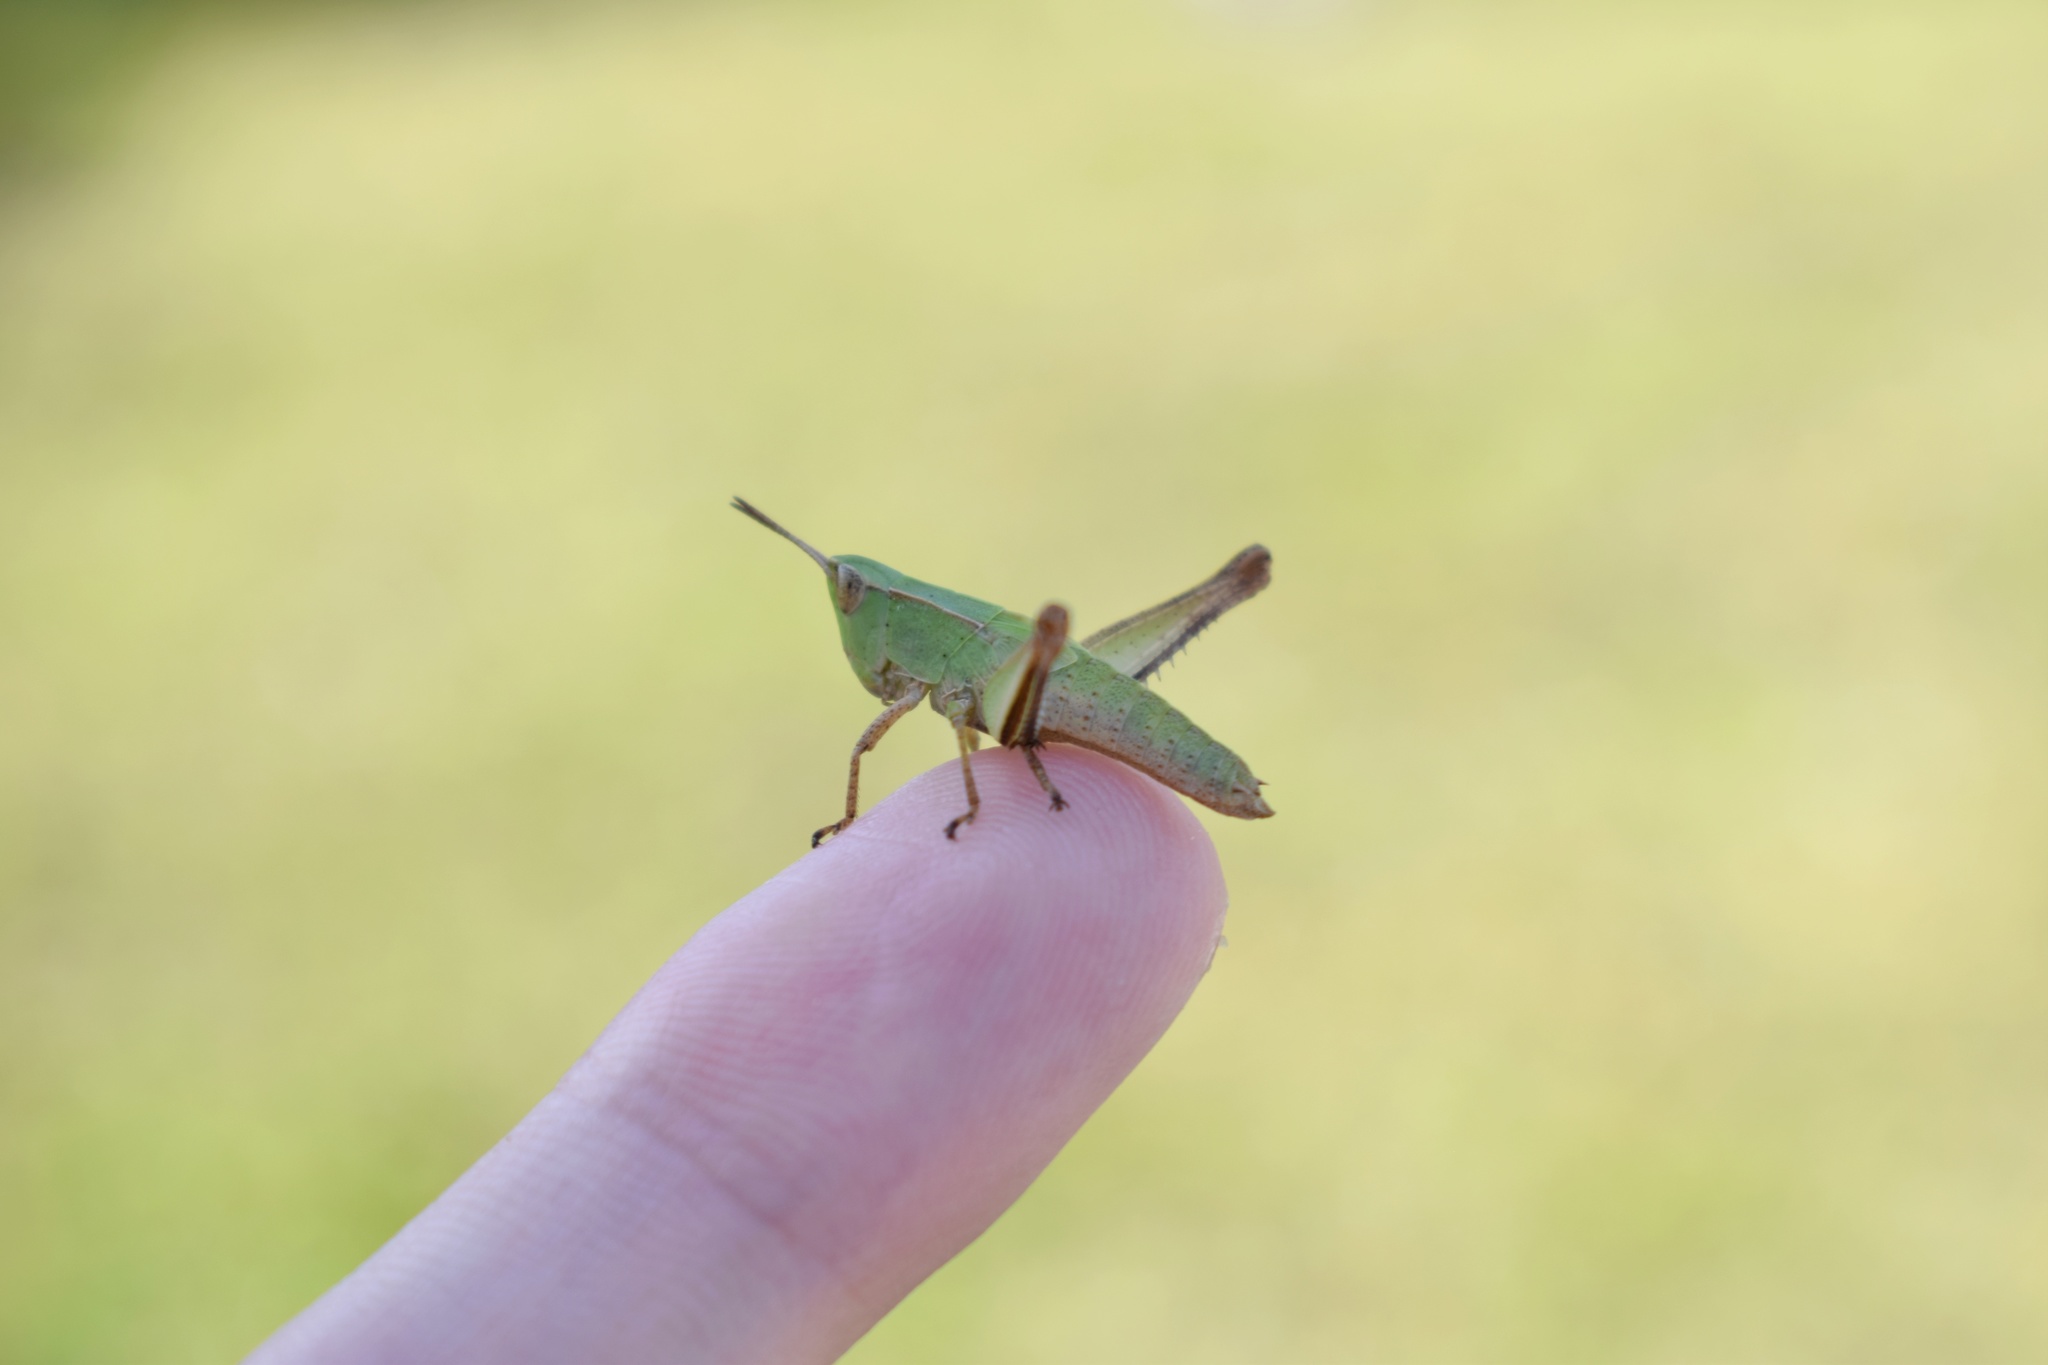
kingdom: Animalia
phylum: Arthropoda
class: Insecta
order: Orthoptera
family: Acrididae
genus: Dichromorpha
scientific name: Dichromorpha viridis
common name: Short-winged green grasshopper
